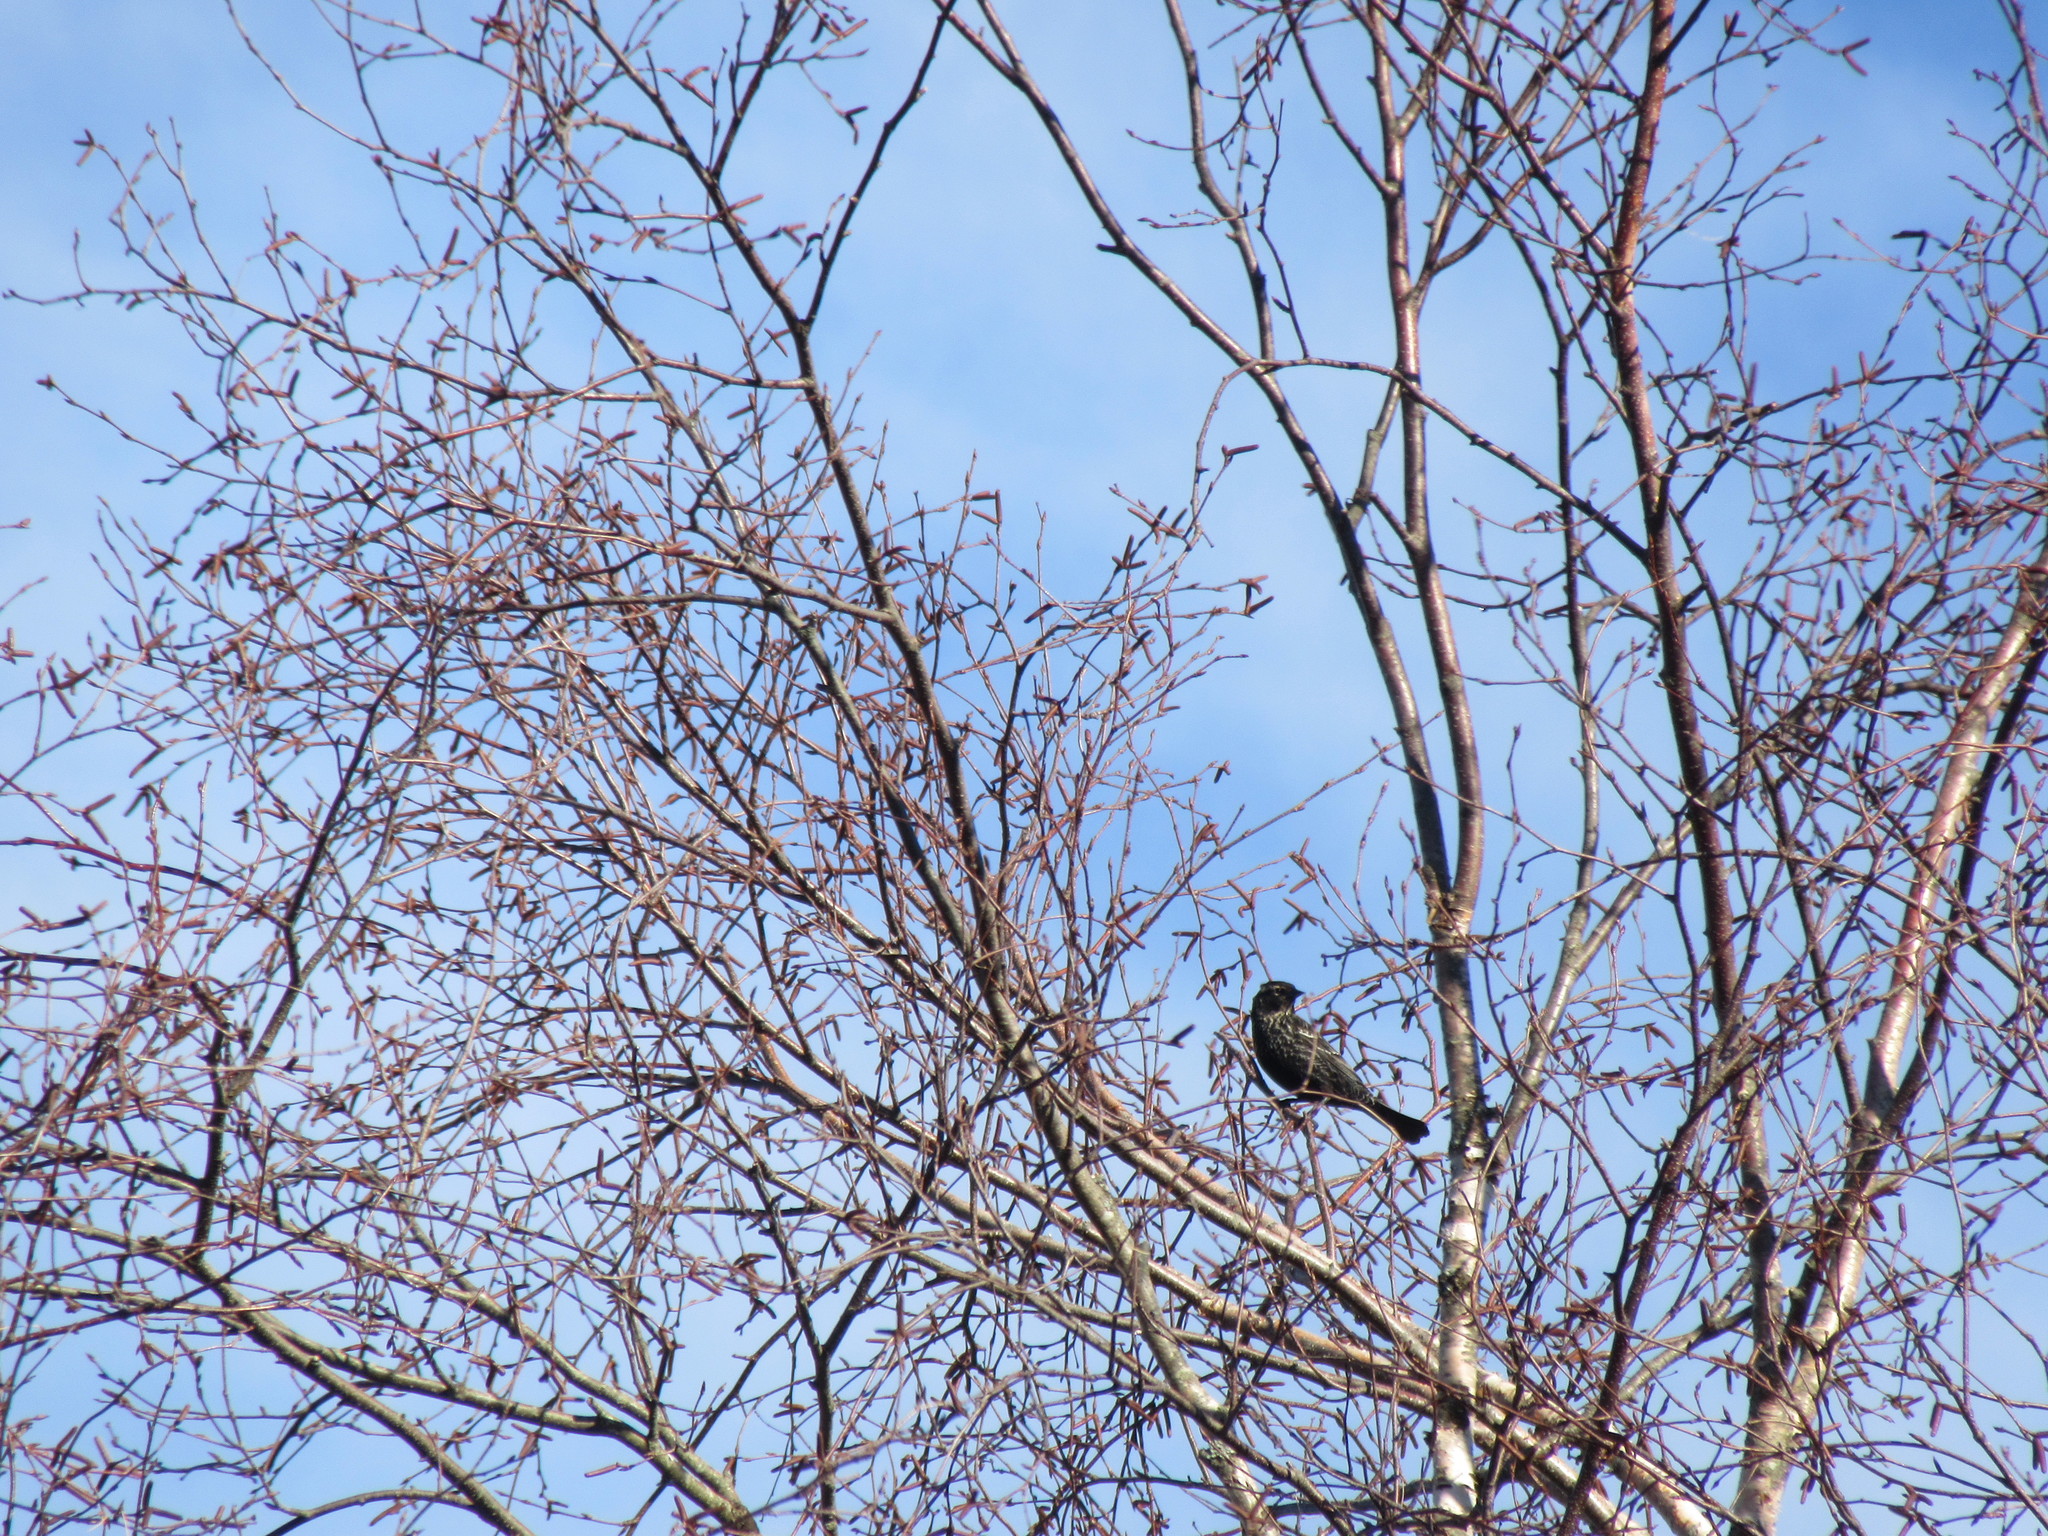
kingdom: Animalia
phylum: Chordata
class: Aves
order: Passeriformes
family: Icteridae
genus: Agelaius
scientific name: Agelaius phoeniceus
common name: Red-winged blackbird
